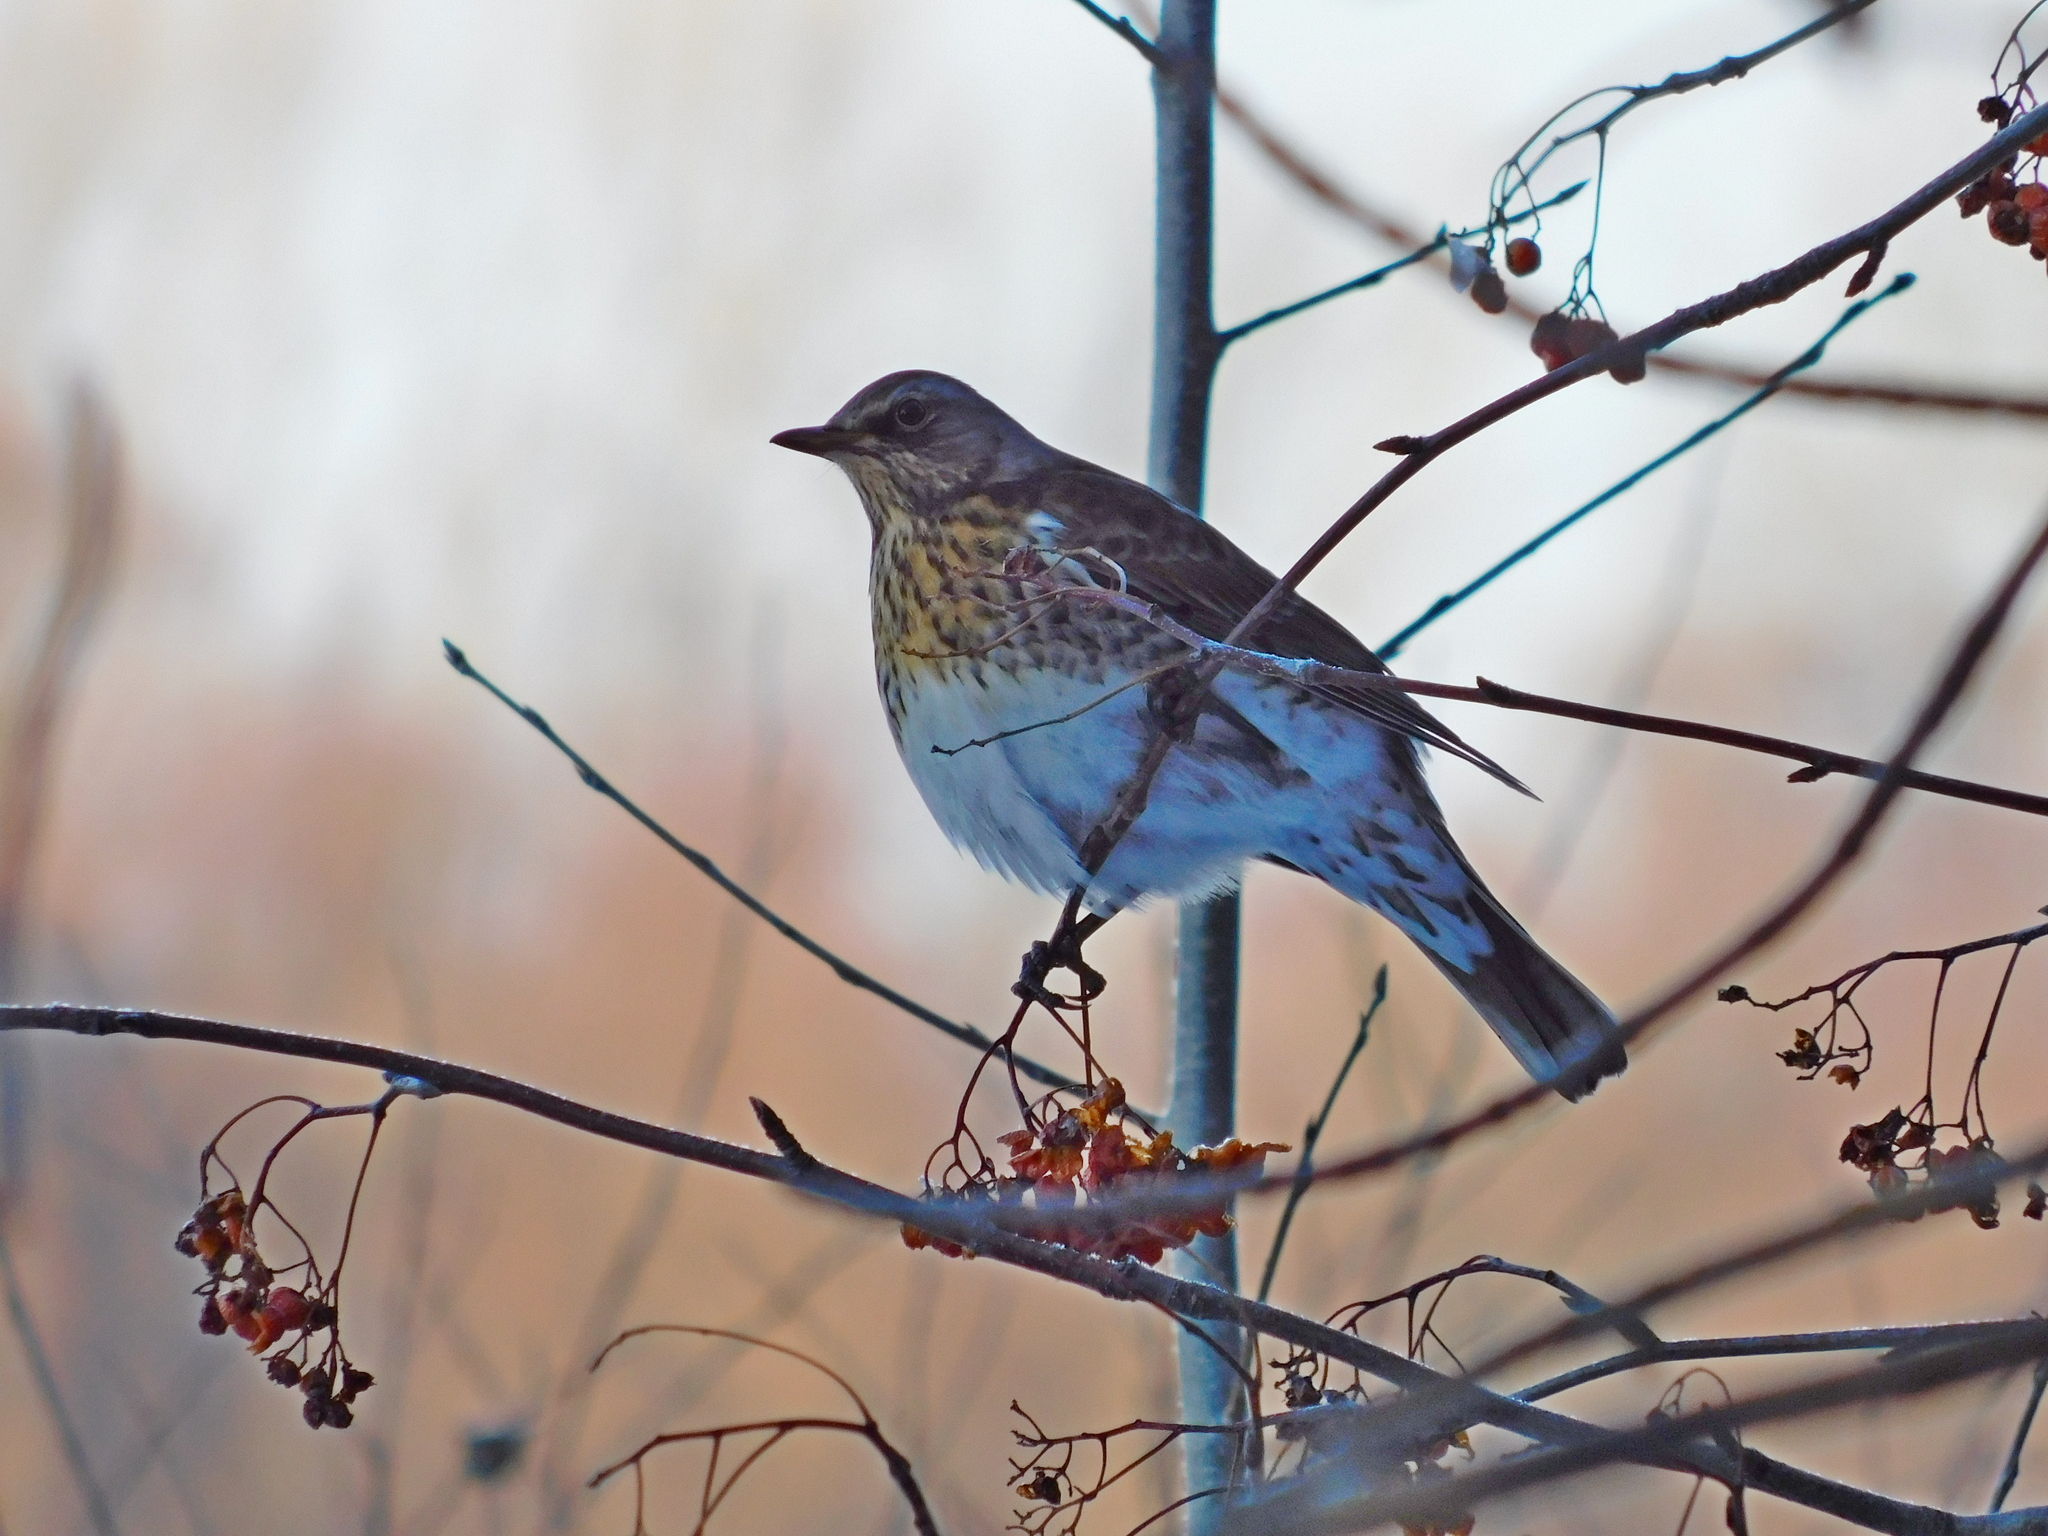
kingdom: Animalia
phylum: Chordata
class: Aves
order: Passeriformes
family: Turdidae
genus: Turdus
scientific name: Turdus pilaris
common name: Fieldfare
